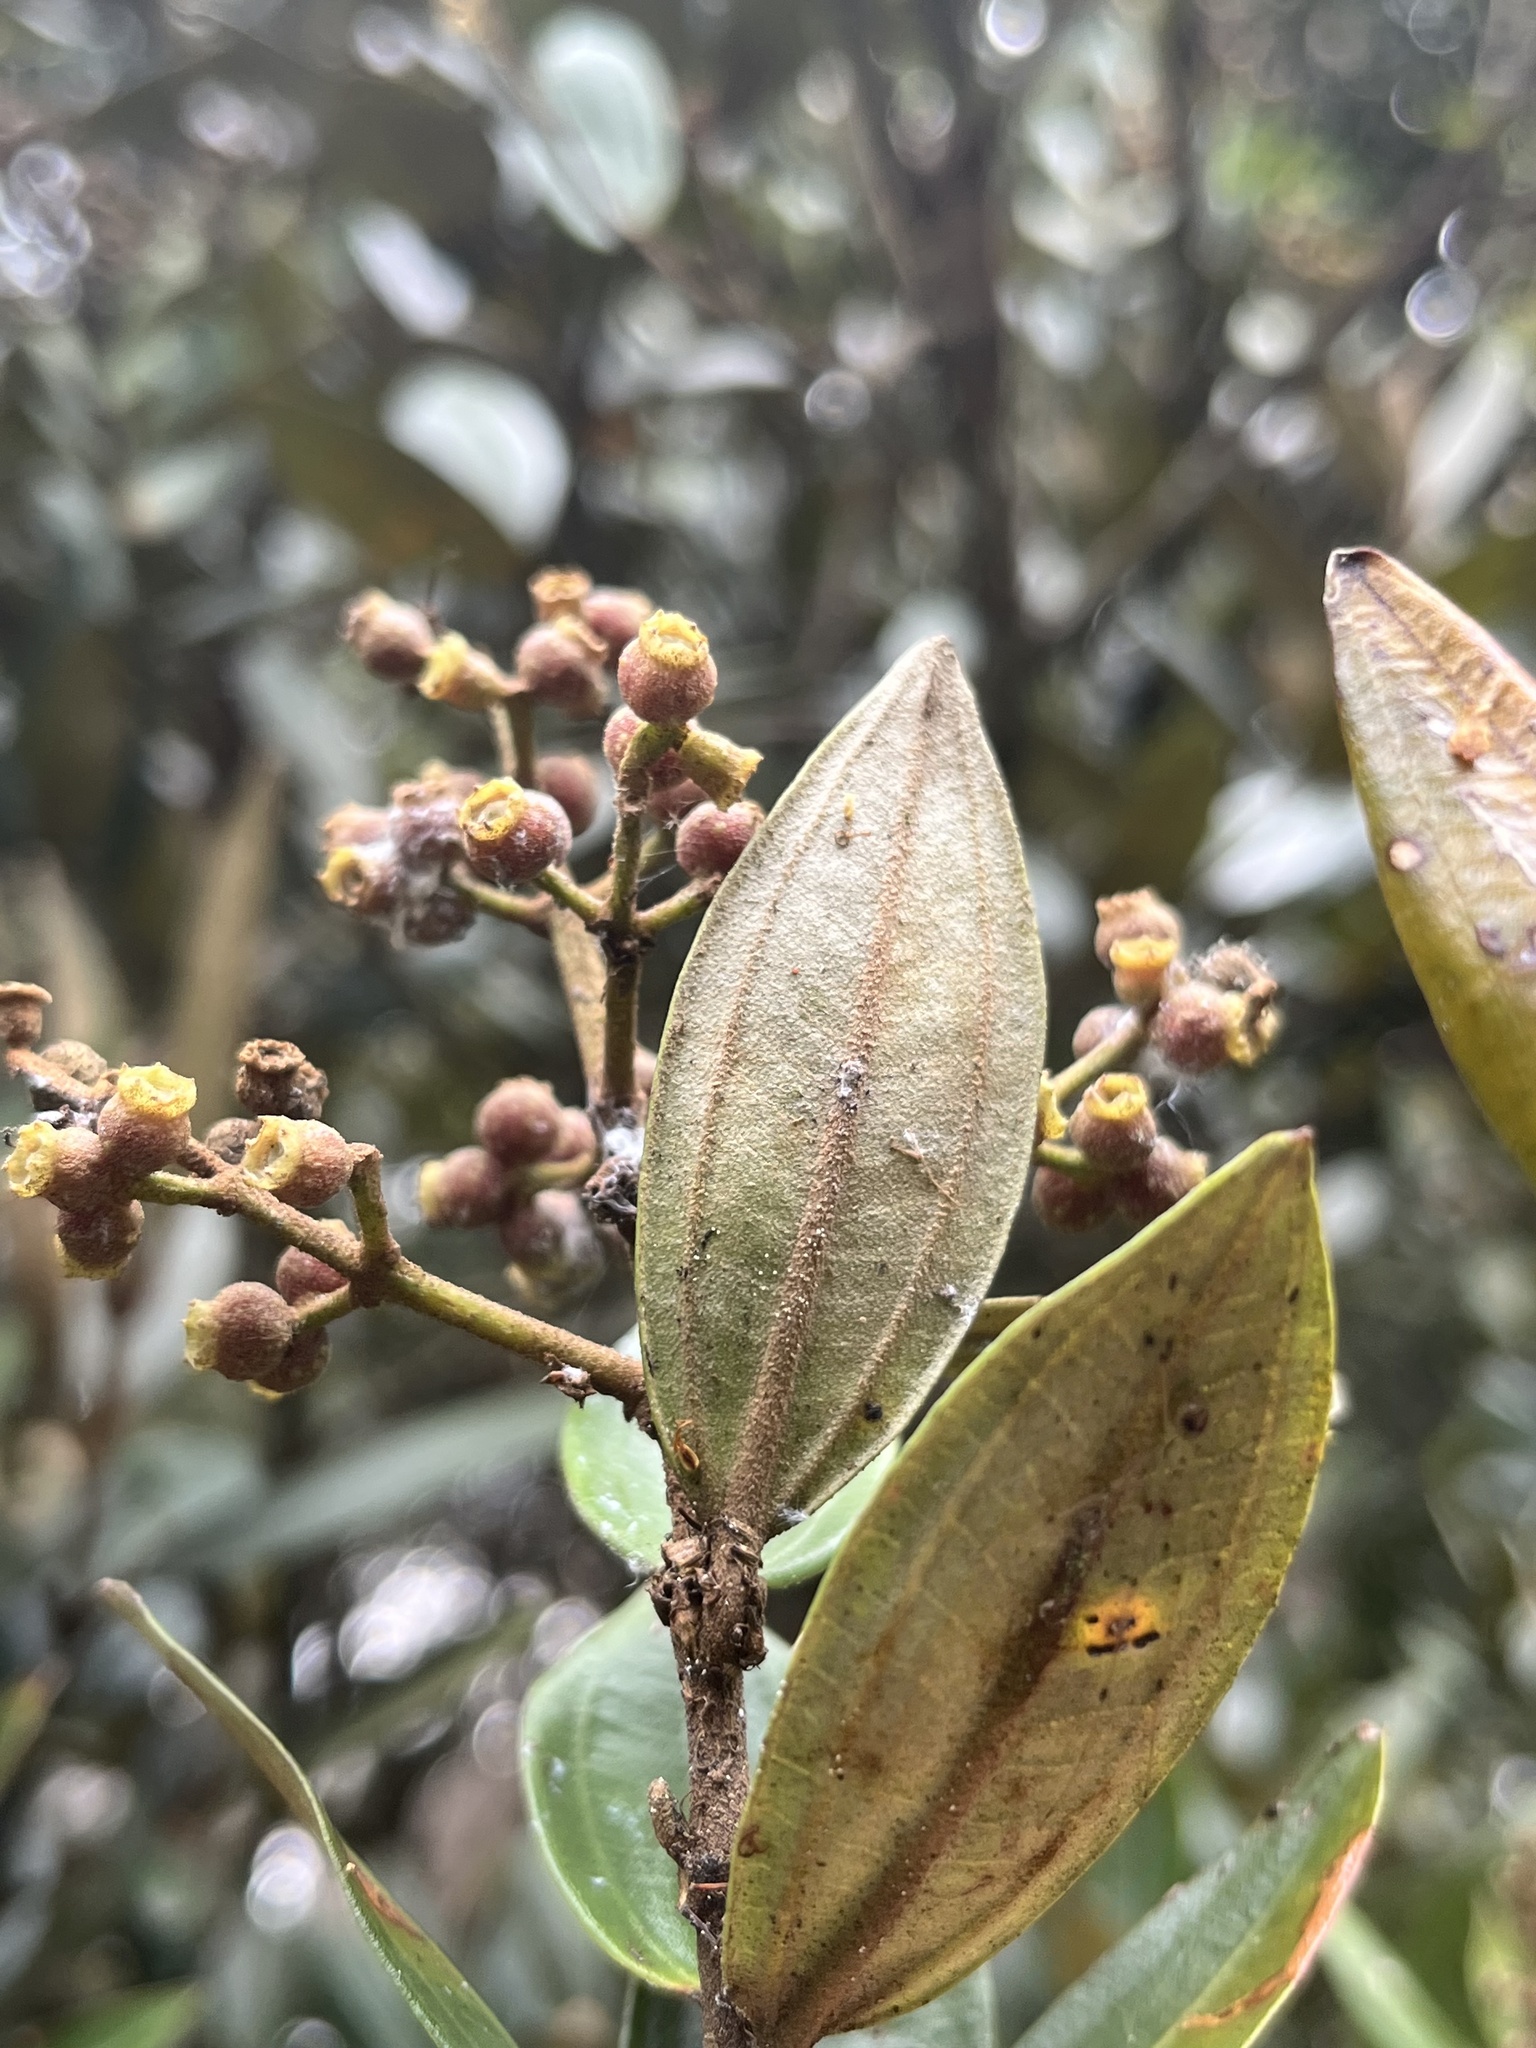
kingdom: Plantae
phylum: Tracheophyta
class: Magnoliopsida
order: Myrtales
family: Melastomataceae
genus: Miconia
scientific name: Miconia squamulosa
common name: Squamulose maya
